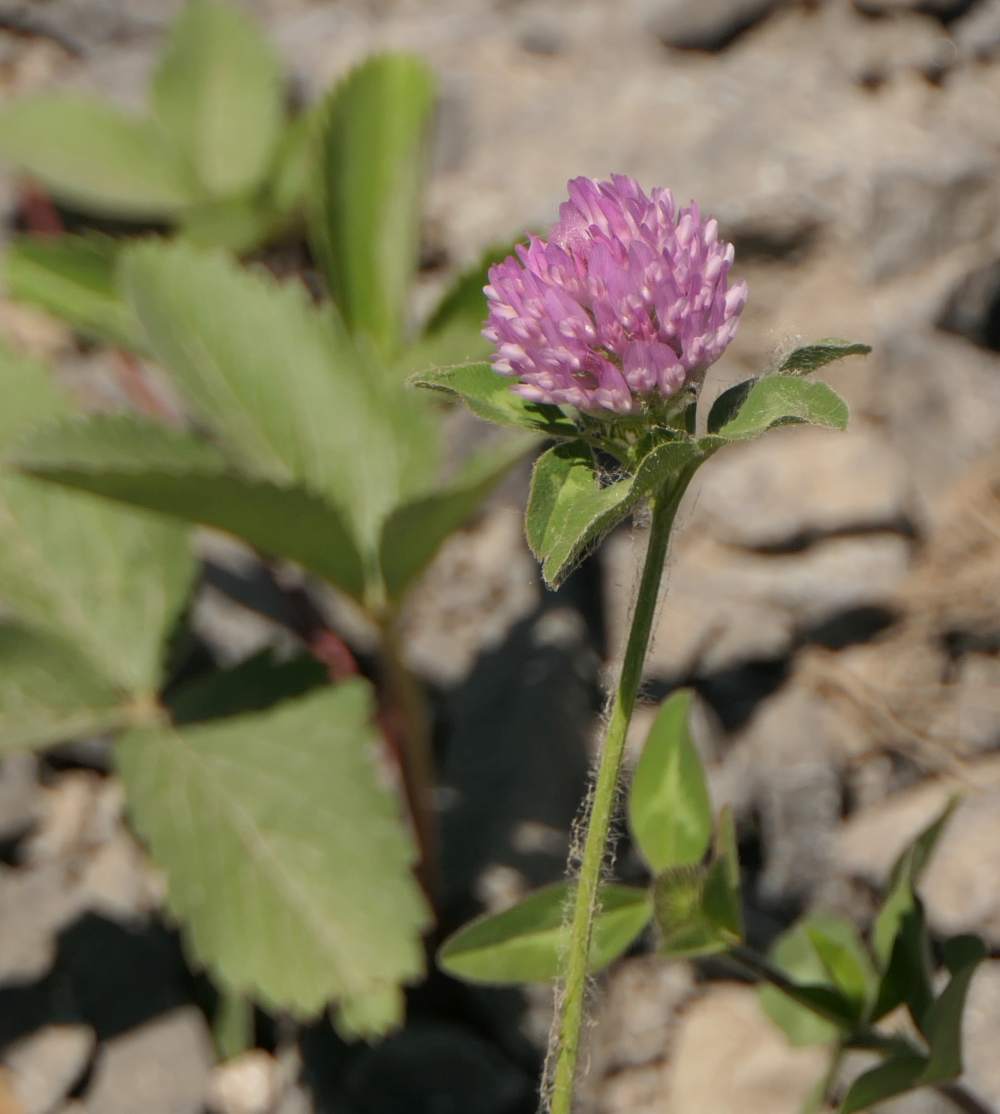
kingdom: Plantae
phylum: Tracheophyta
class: Magnoliopsida
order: Fabales
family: Fabaceae
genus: Trifolium
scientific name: Trifolium pratense
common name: Red clover
